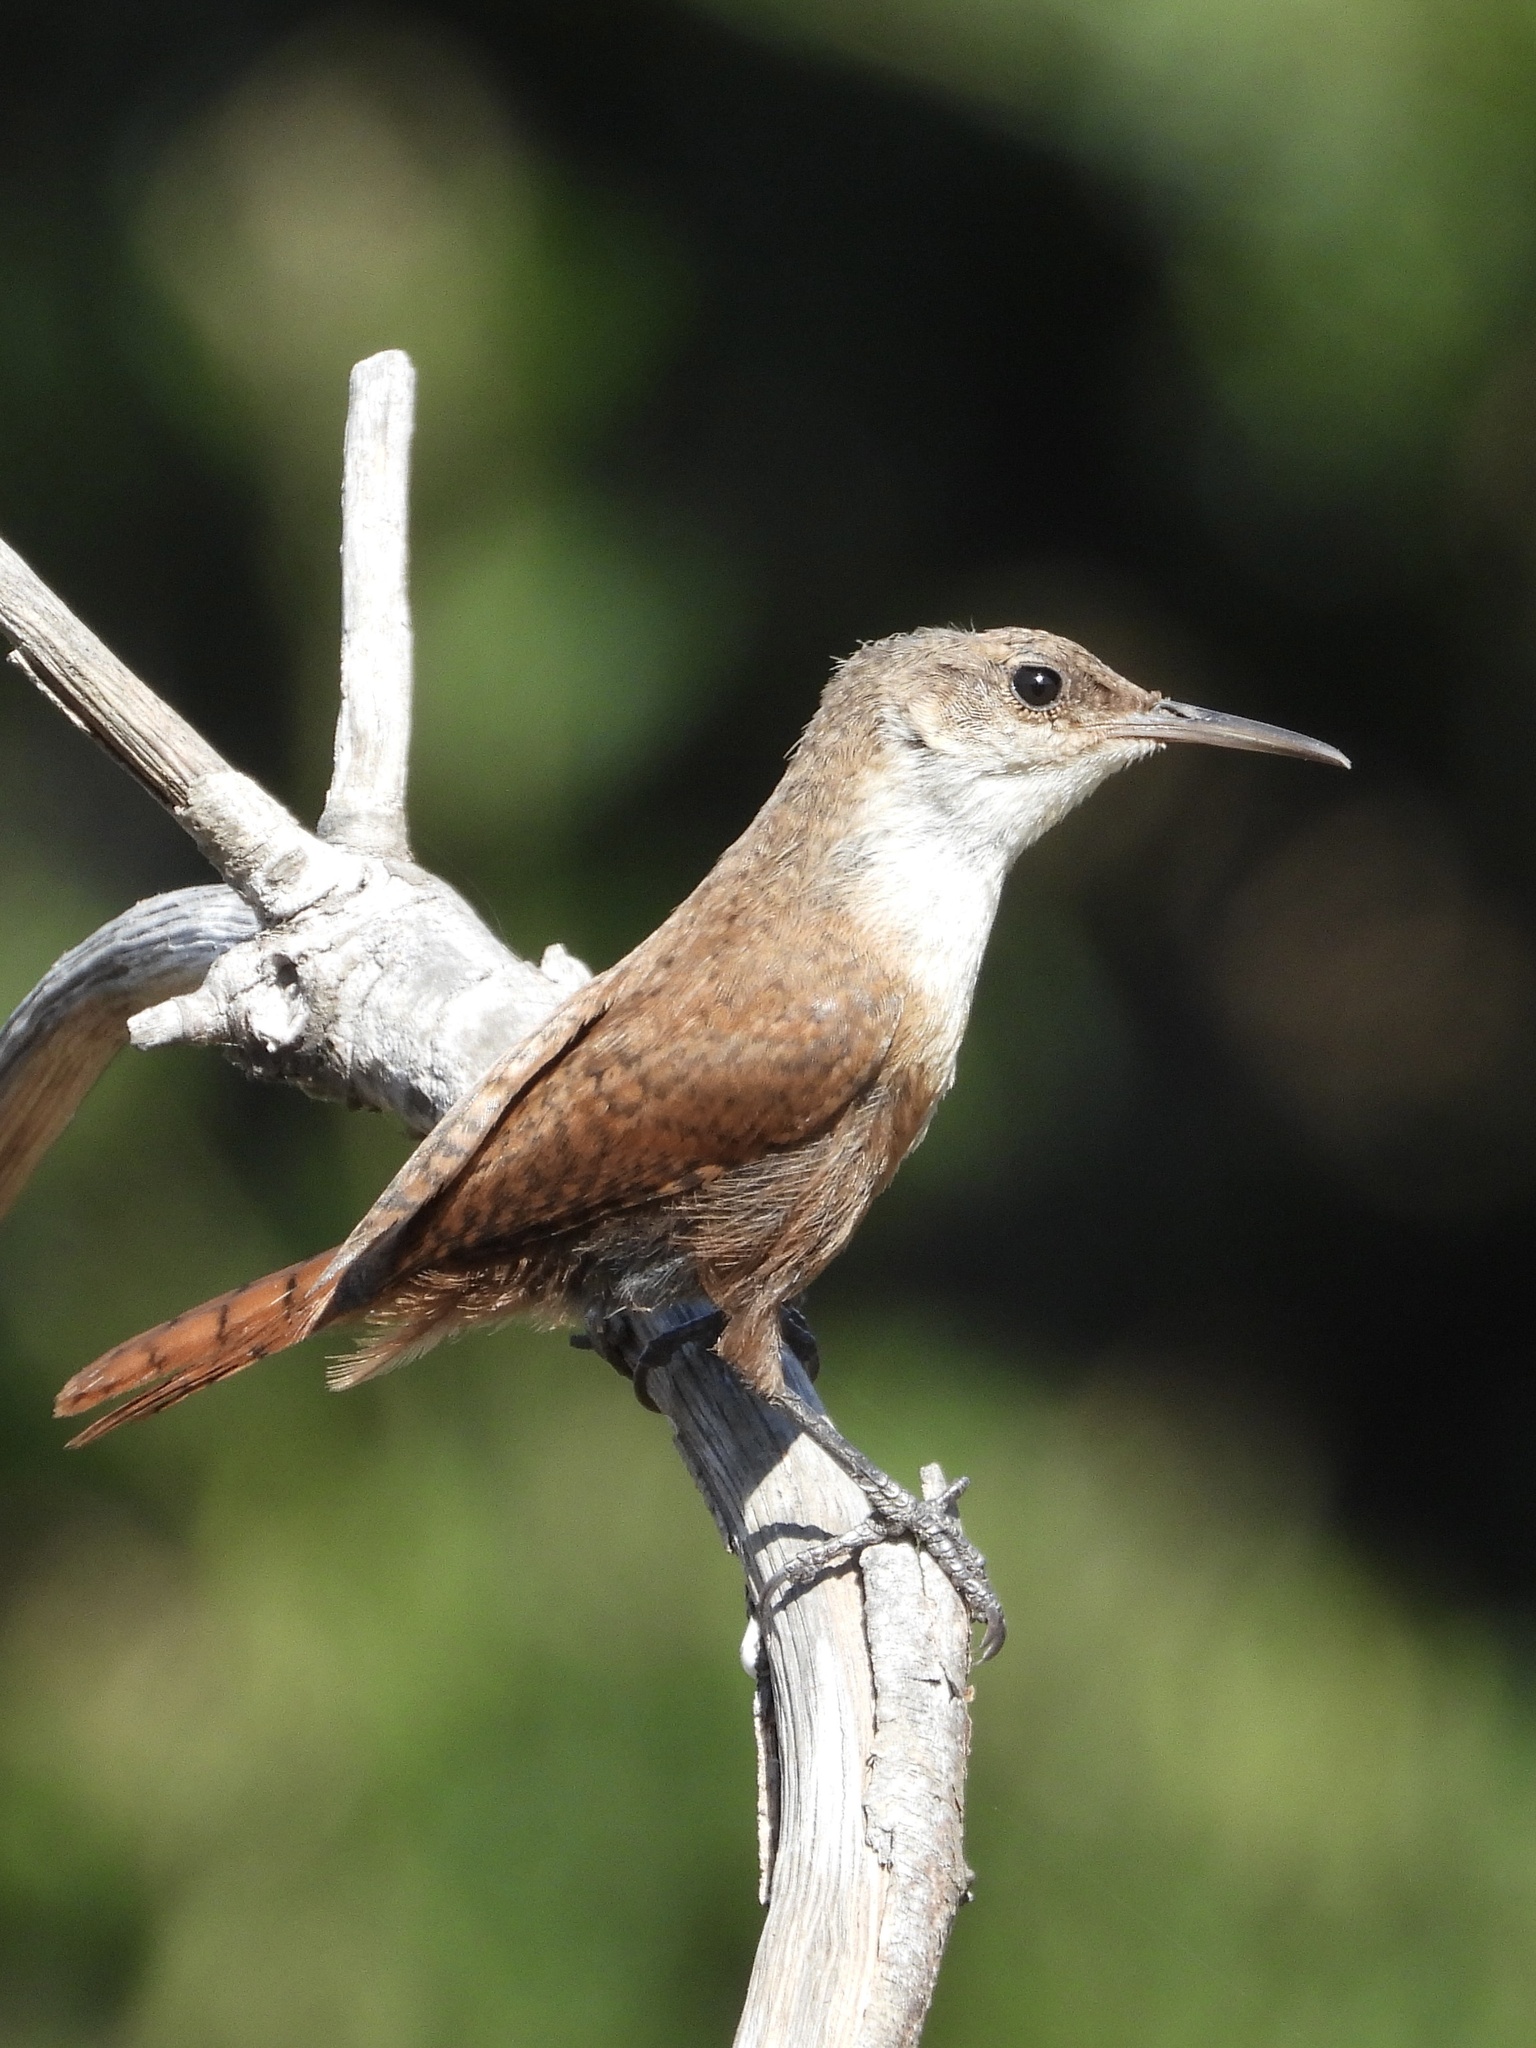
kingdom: Animalia
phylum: Chordata
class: Aves
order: Passeriformes
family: Troglodytidae
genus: Catherpes
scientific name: Catherpes mexicanus
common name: Canyon wren
